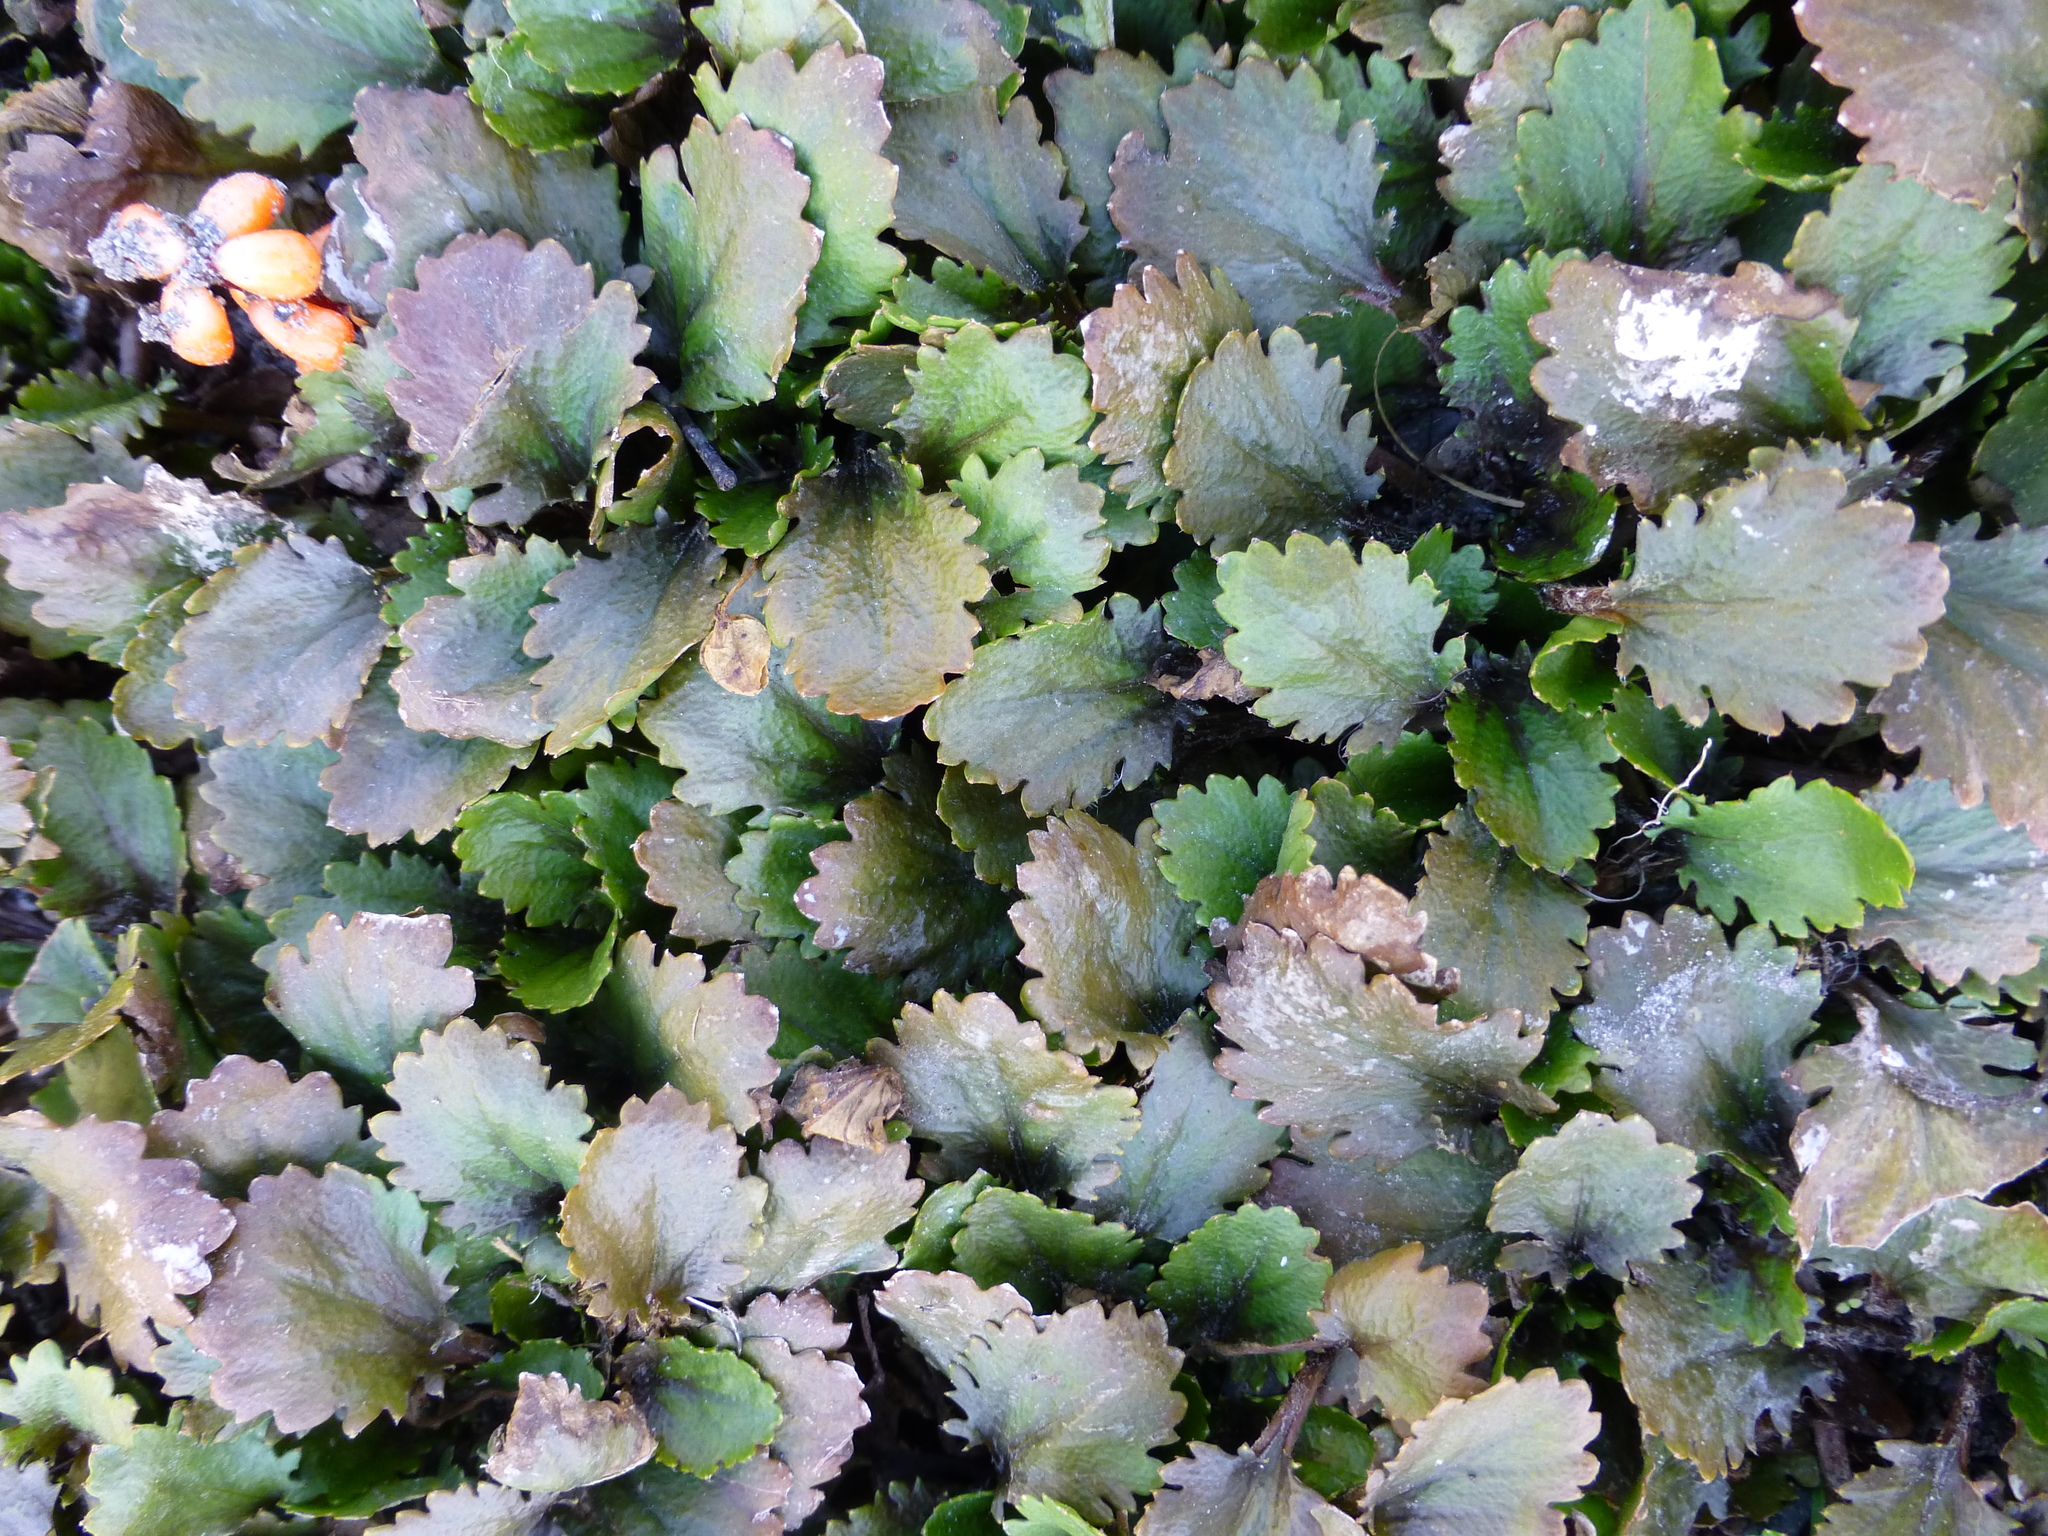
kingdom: Plantae
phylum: Tracheophyta
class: Magnoliopsida
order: Gunnerales
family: Gunneraceae
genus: Gunnera
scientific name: Gunnera dentata
